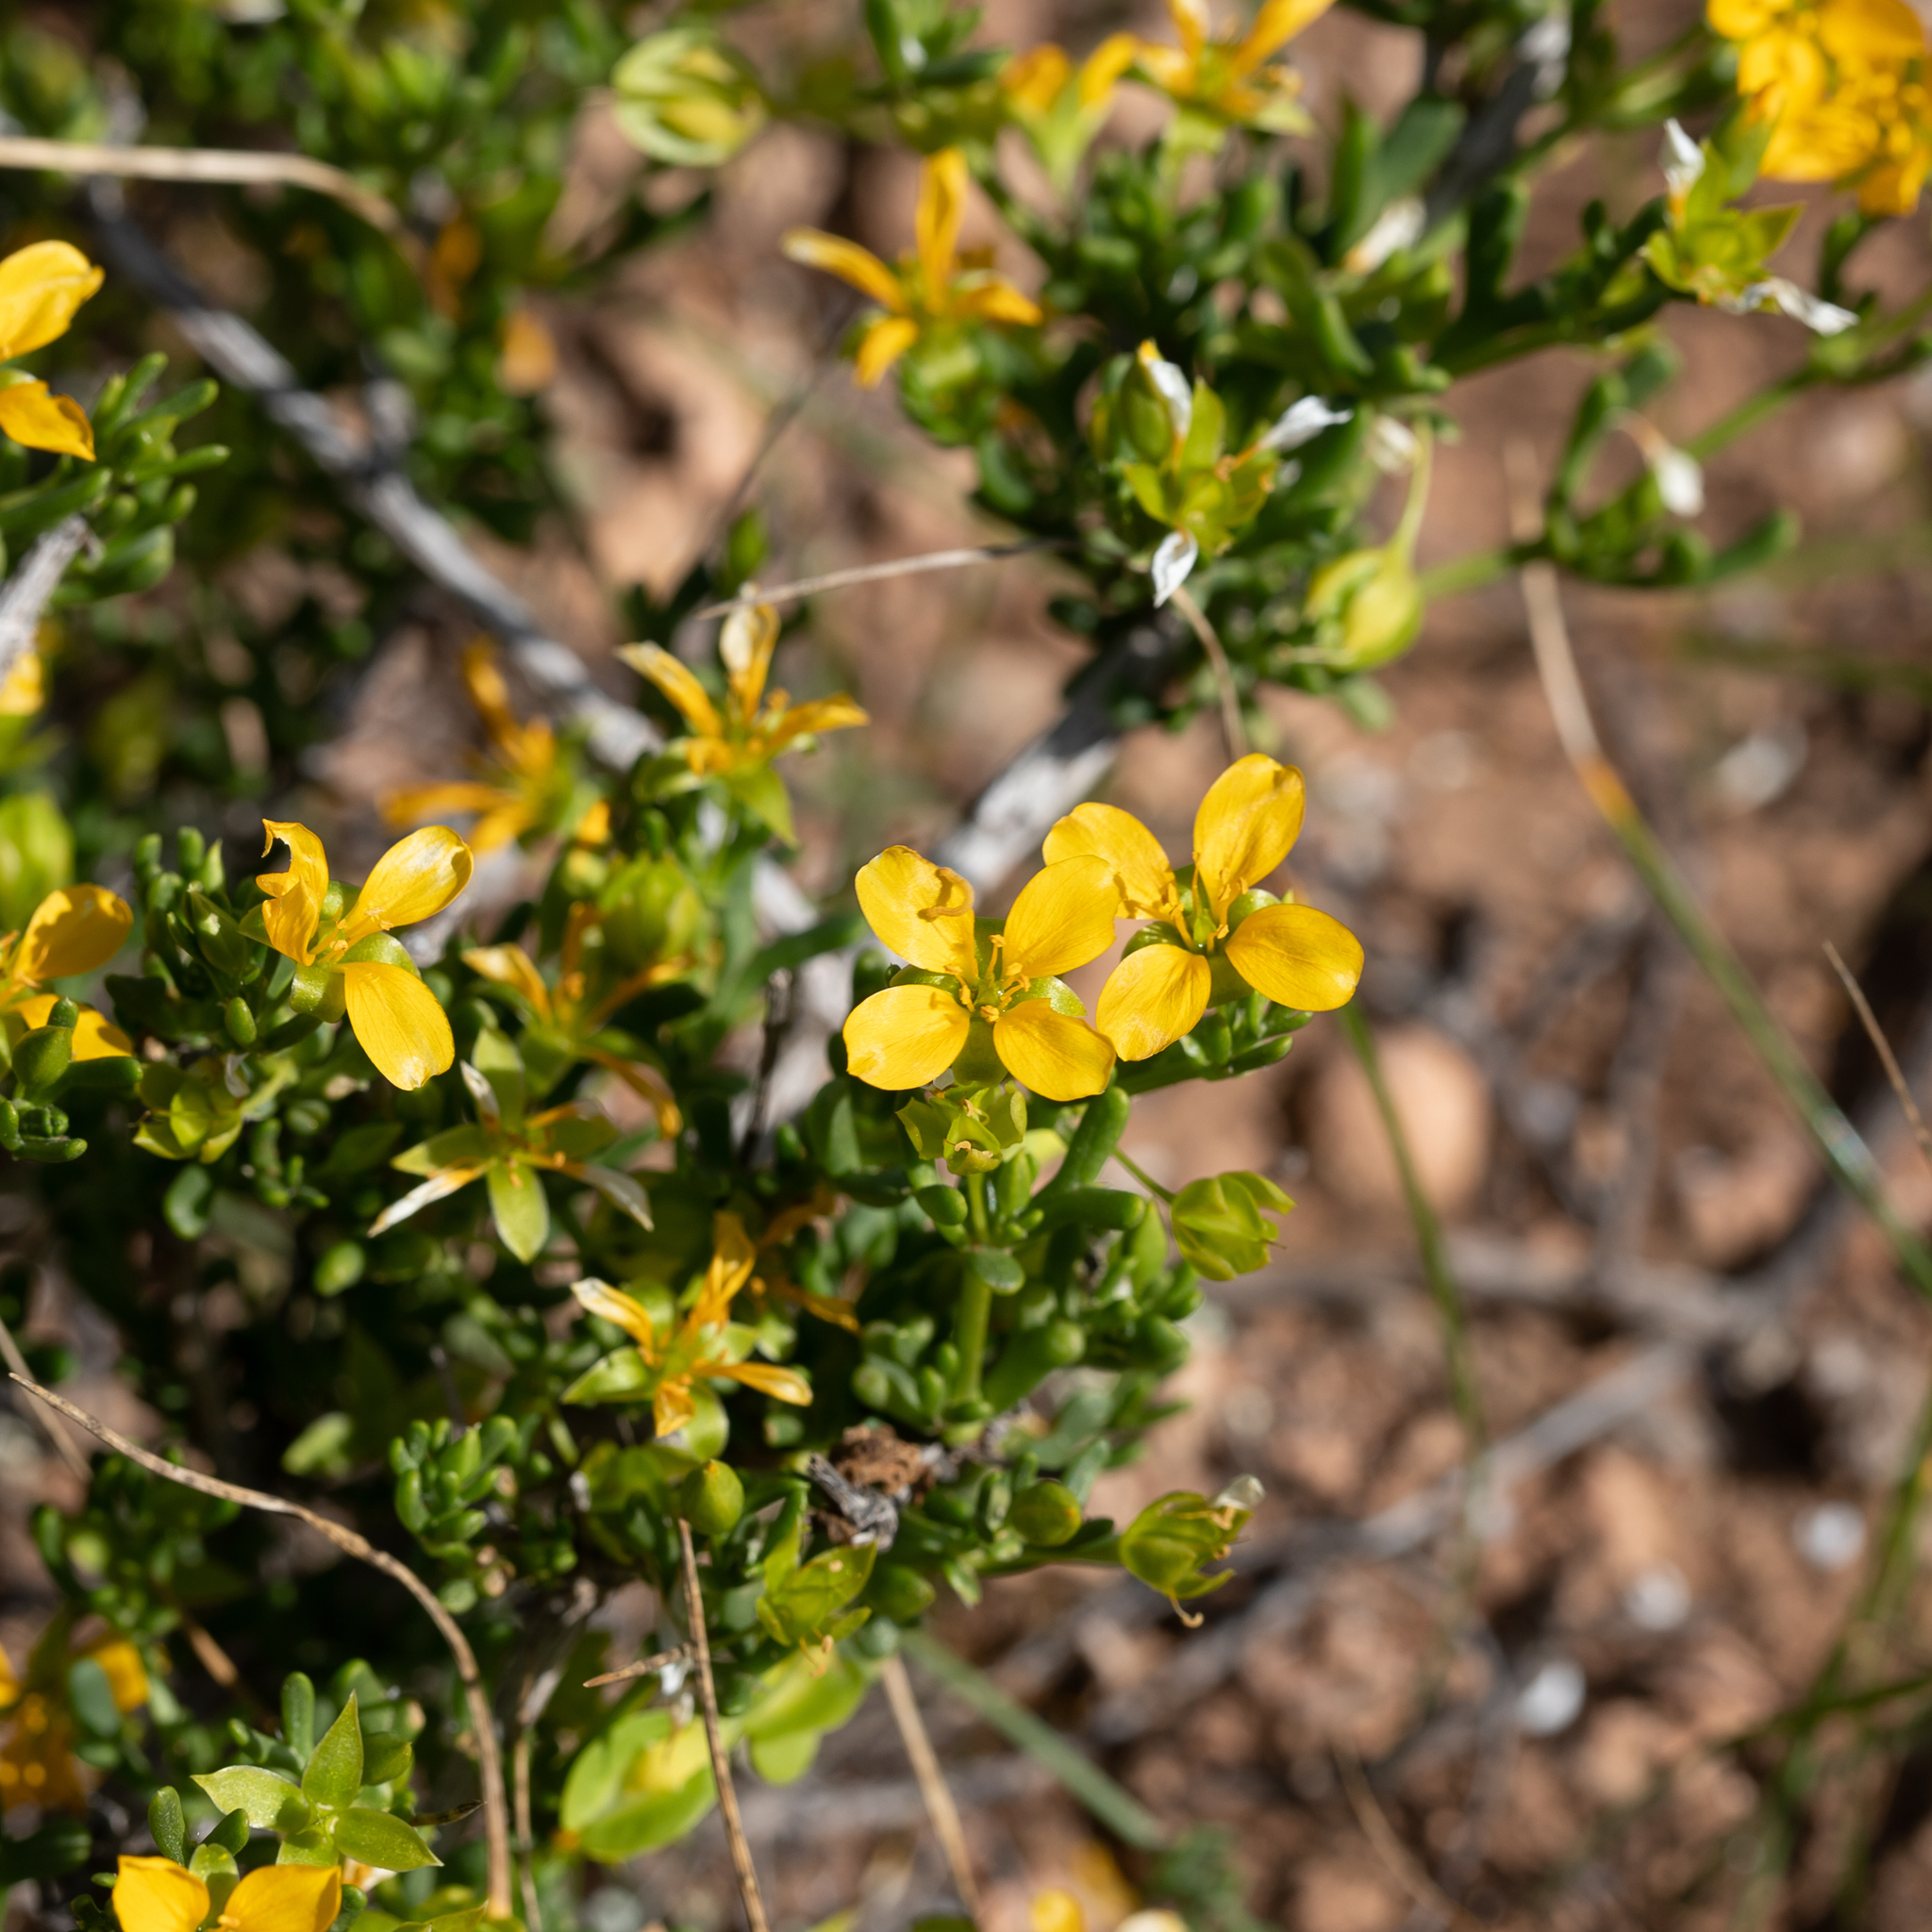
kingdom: Plantae
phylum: Tracheophyta
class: Magnoliopsida
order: Zygophyllales
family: Zygophyllaceae
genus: Roepera
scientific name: Roepera aurantiaca
